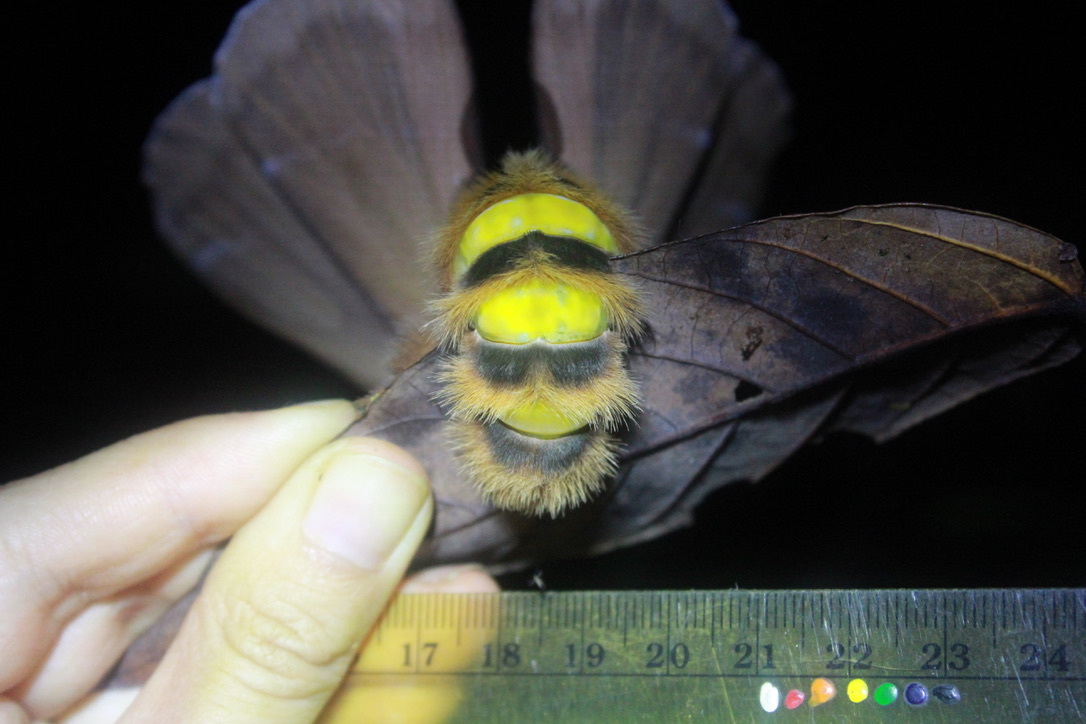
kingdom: Animalia
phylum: Arthropoda
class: Insecta
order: Lepidoptera
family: Saturniidae
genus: Periphoba
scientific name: Periphoba augur
